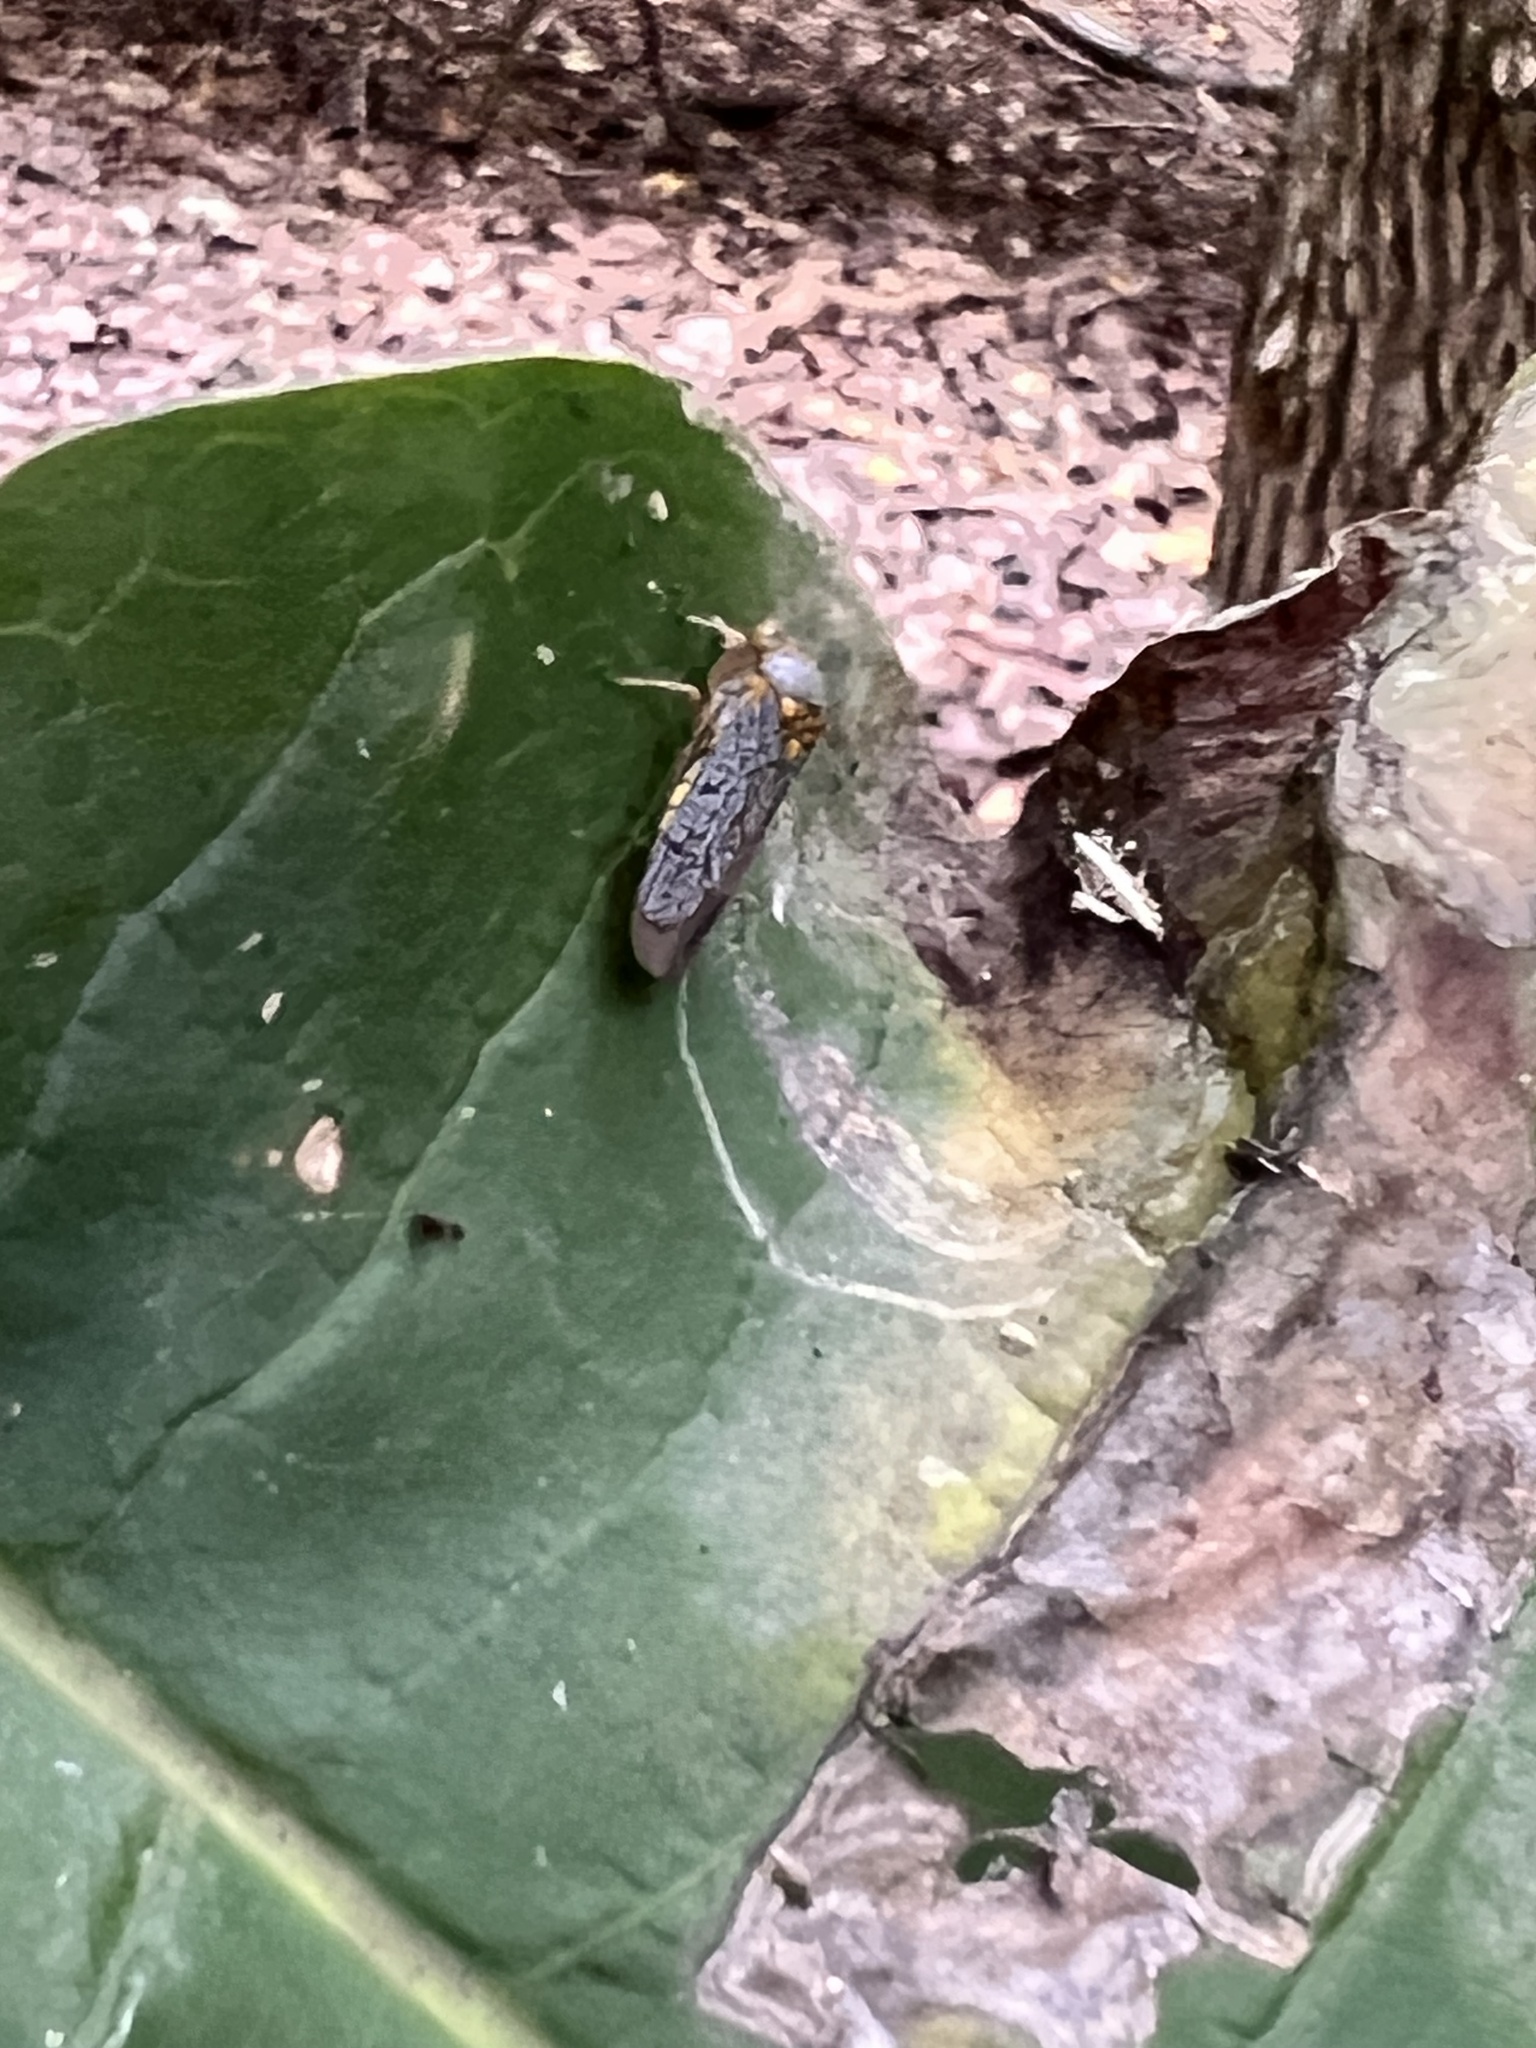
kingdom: Animalia
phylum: Arthropoda
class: Insecta
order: Hemiptera
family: Cicadellidae
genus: Oncometopia
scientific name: Oncometopia orbona
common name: Broad-headed sharpshooter
